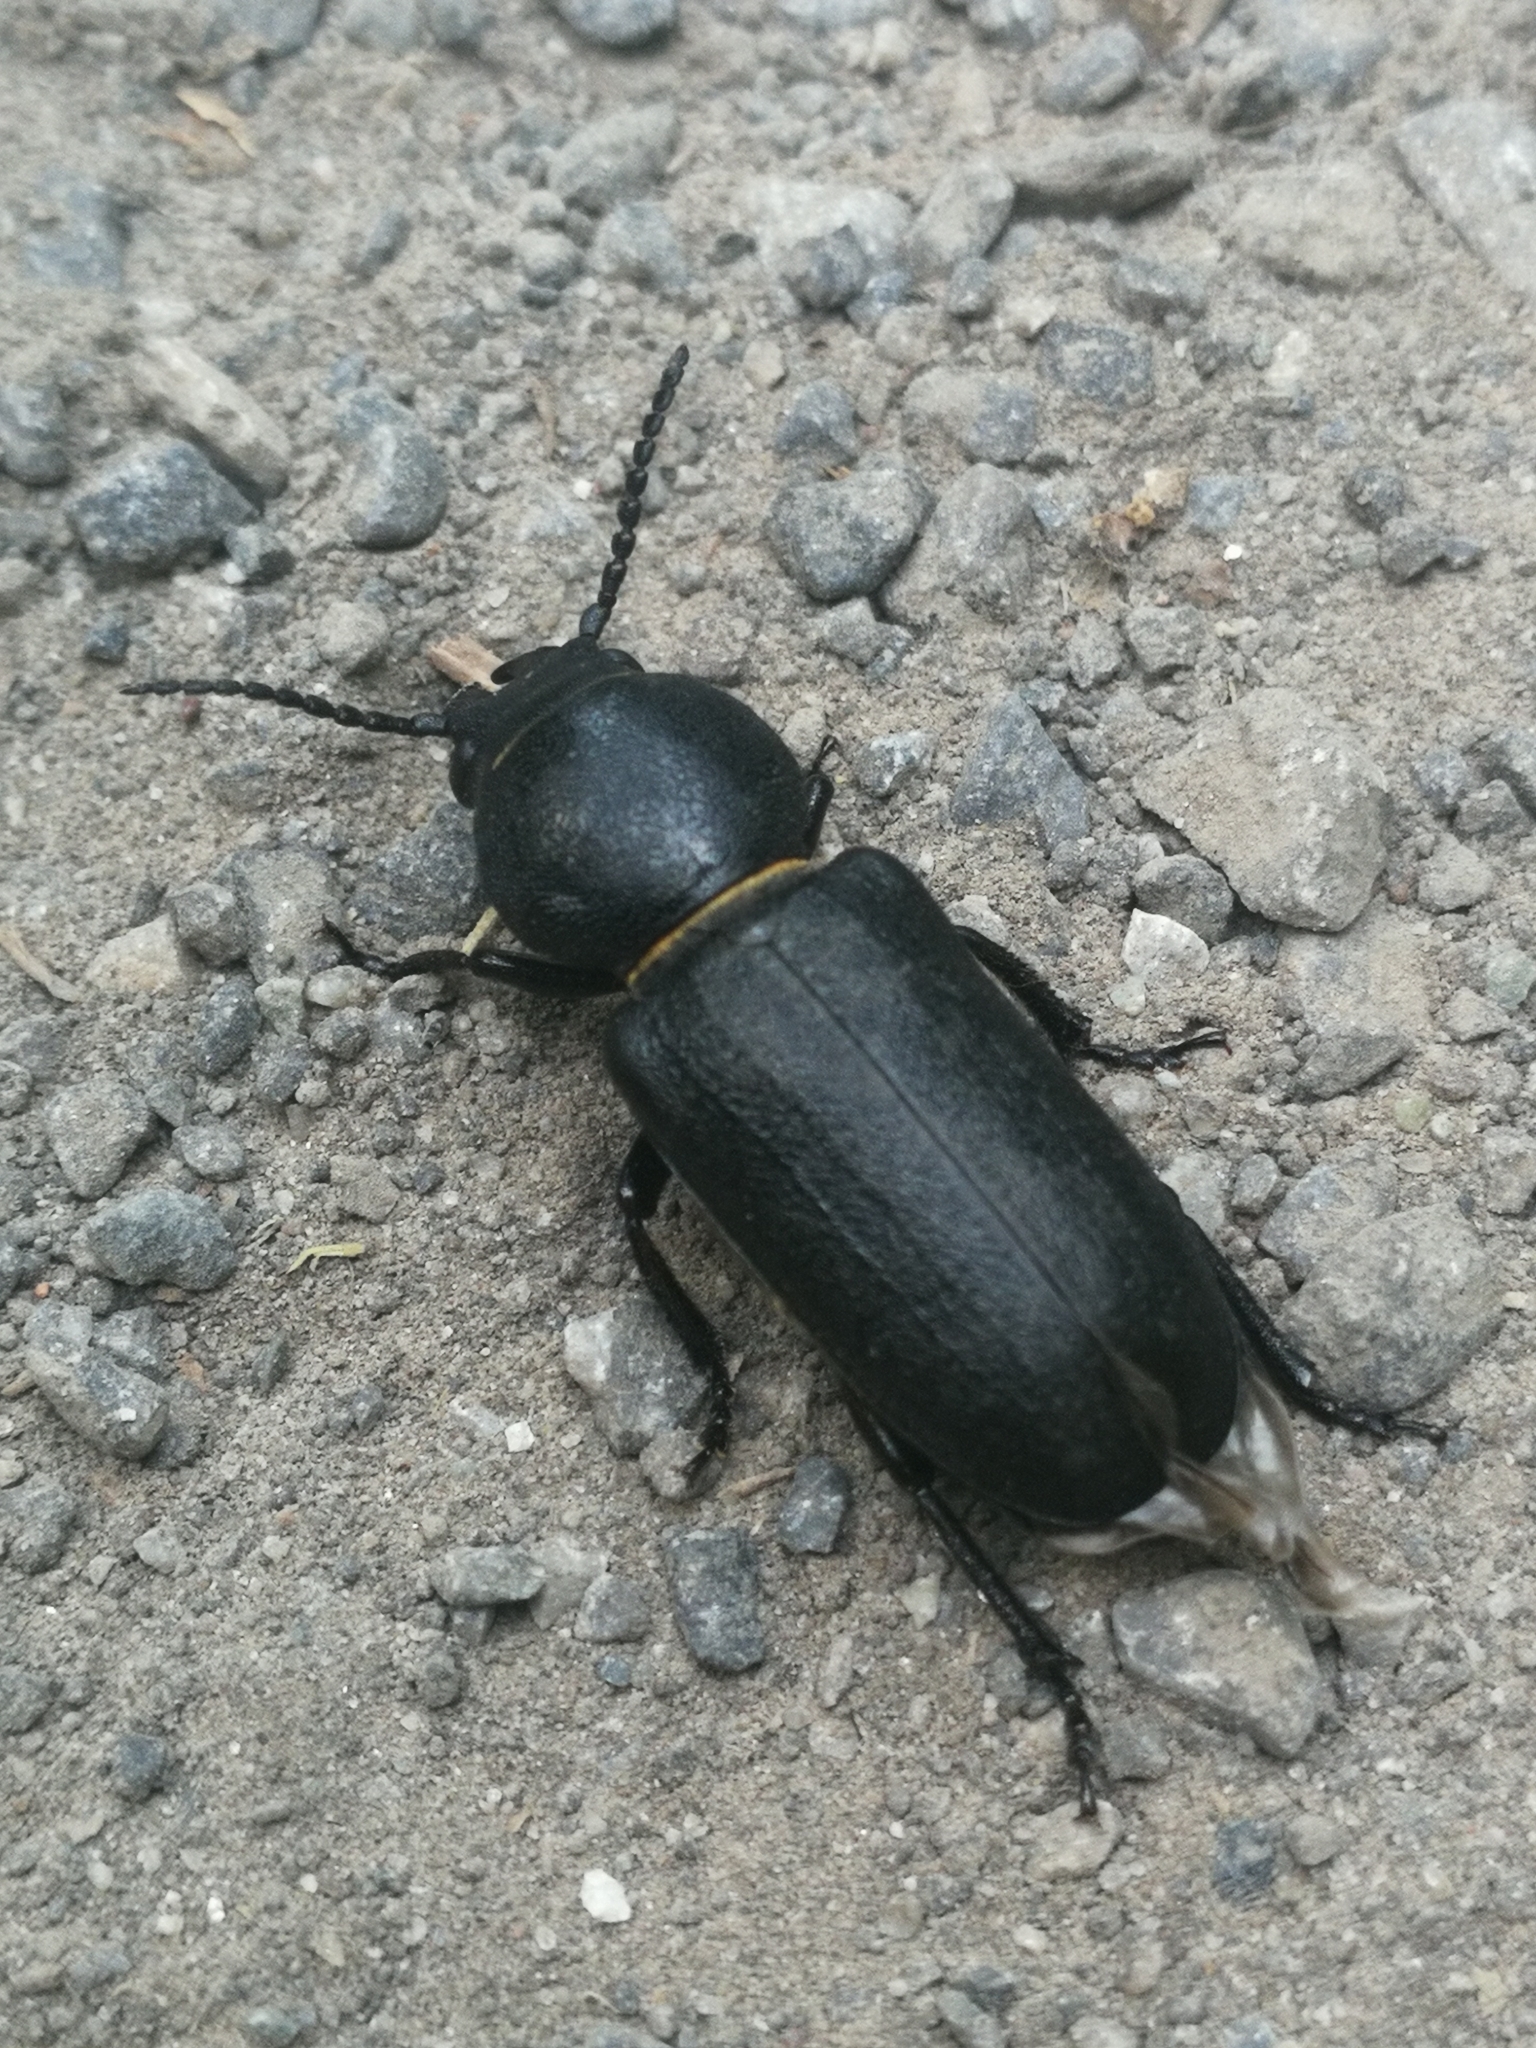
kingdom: Animalia
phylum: Arthropoda
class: Insecta
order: Coleoptera
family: Cerambycidae
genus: Spondylis
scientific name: Spondylis buprestoides
